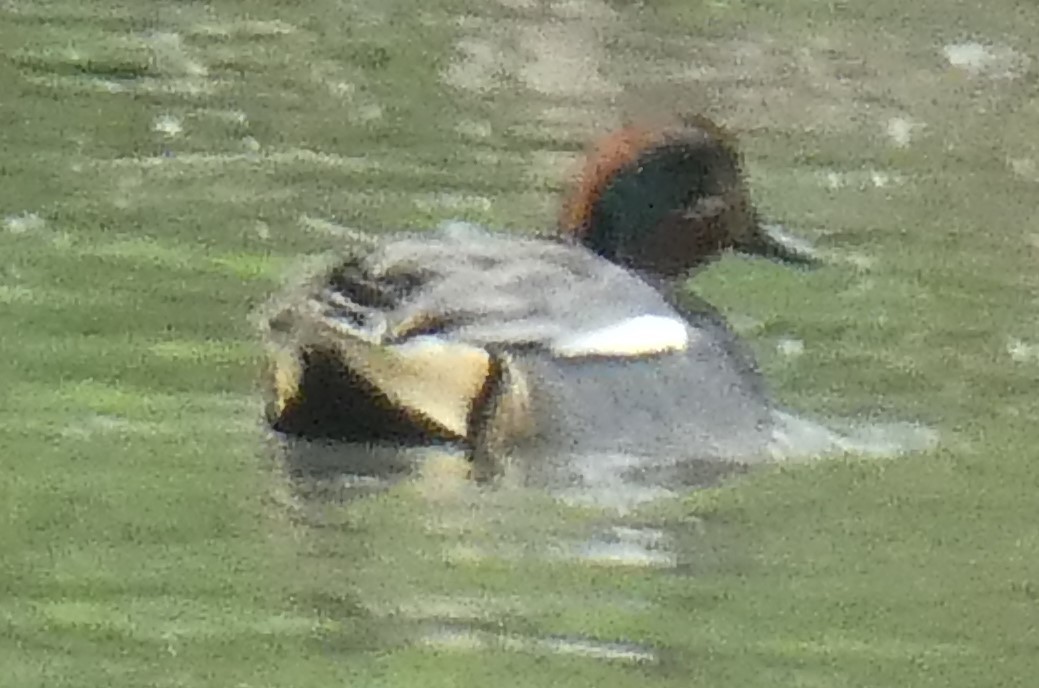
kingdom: Animalia
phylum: Chordata
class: Aves
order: Anseriformes
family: Anatidae
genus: Anas
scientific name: Anas crecca
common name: Eurasian teal
